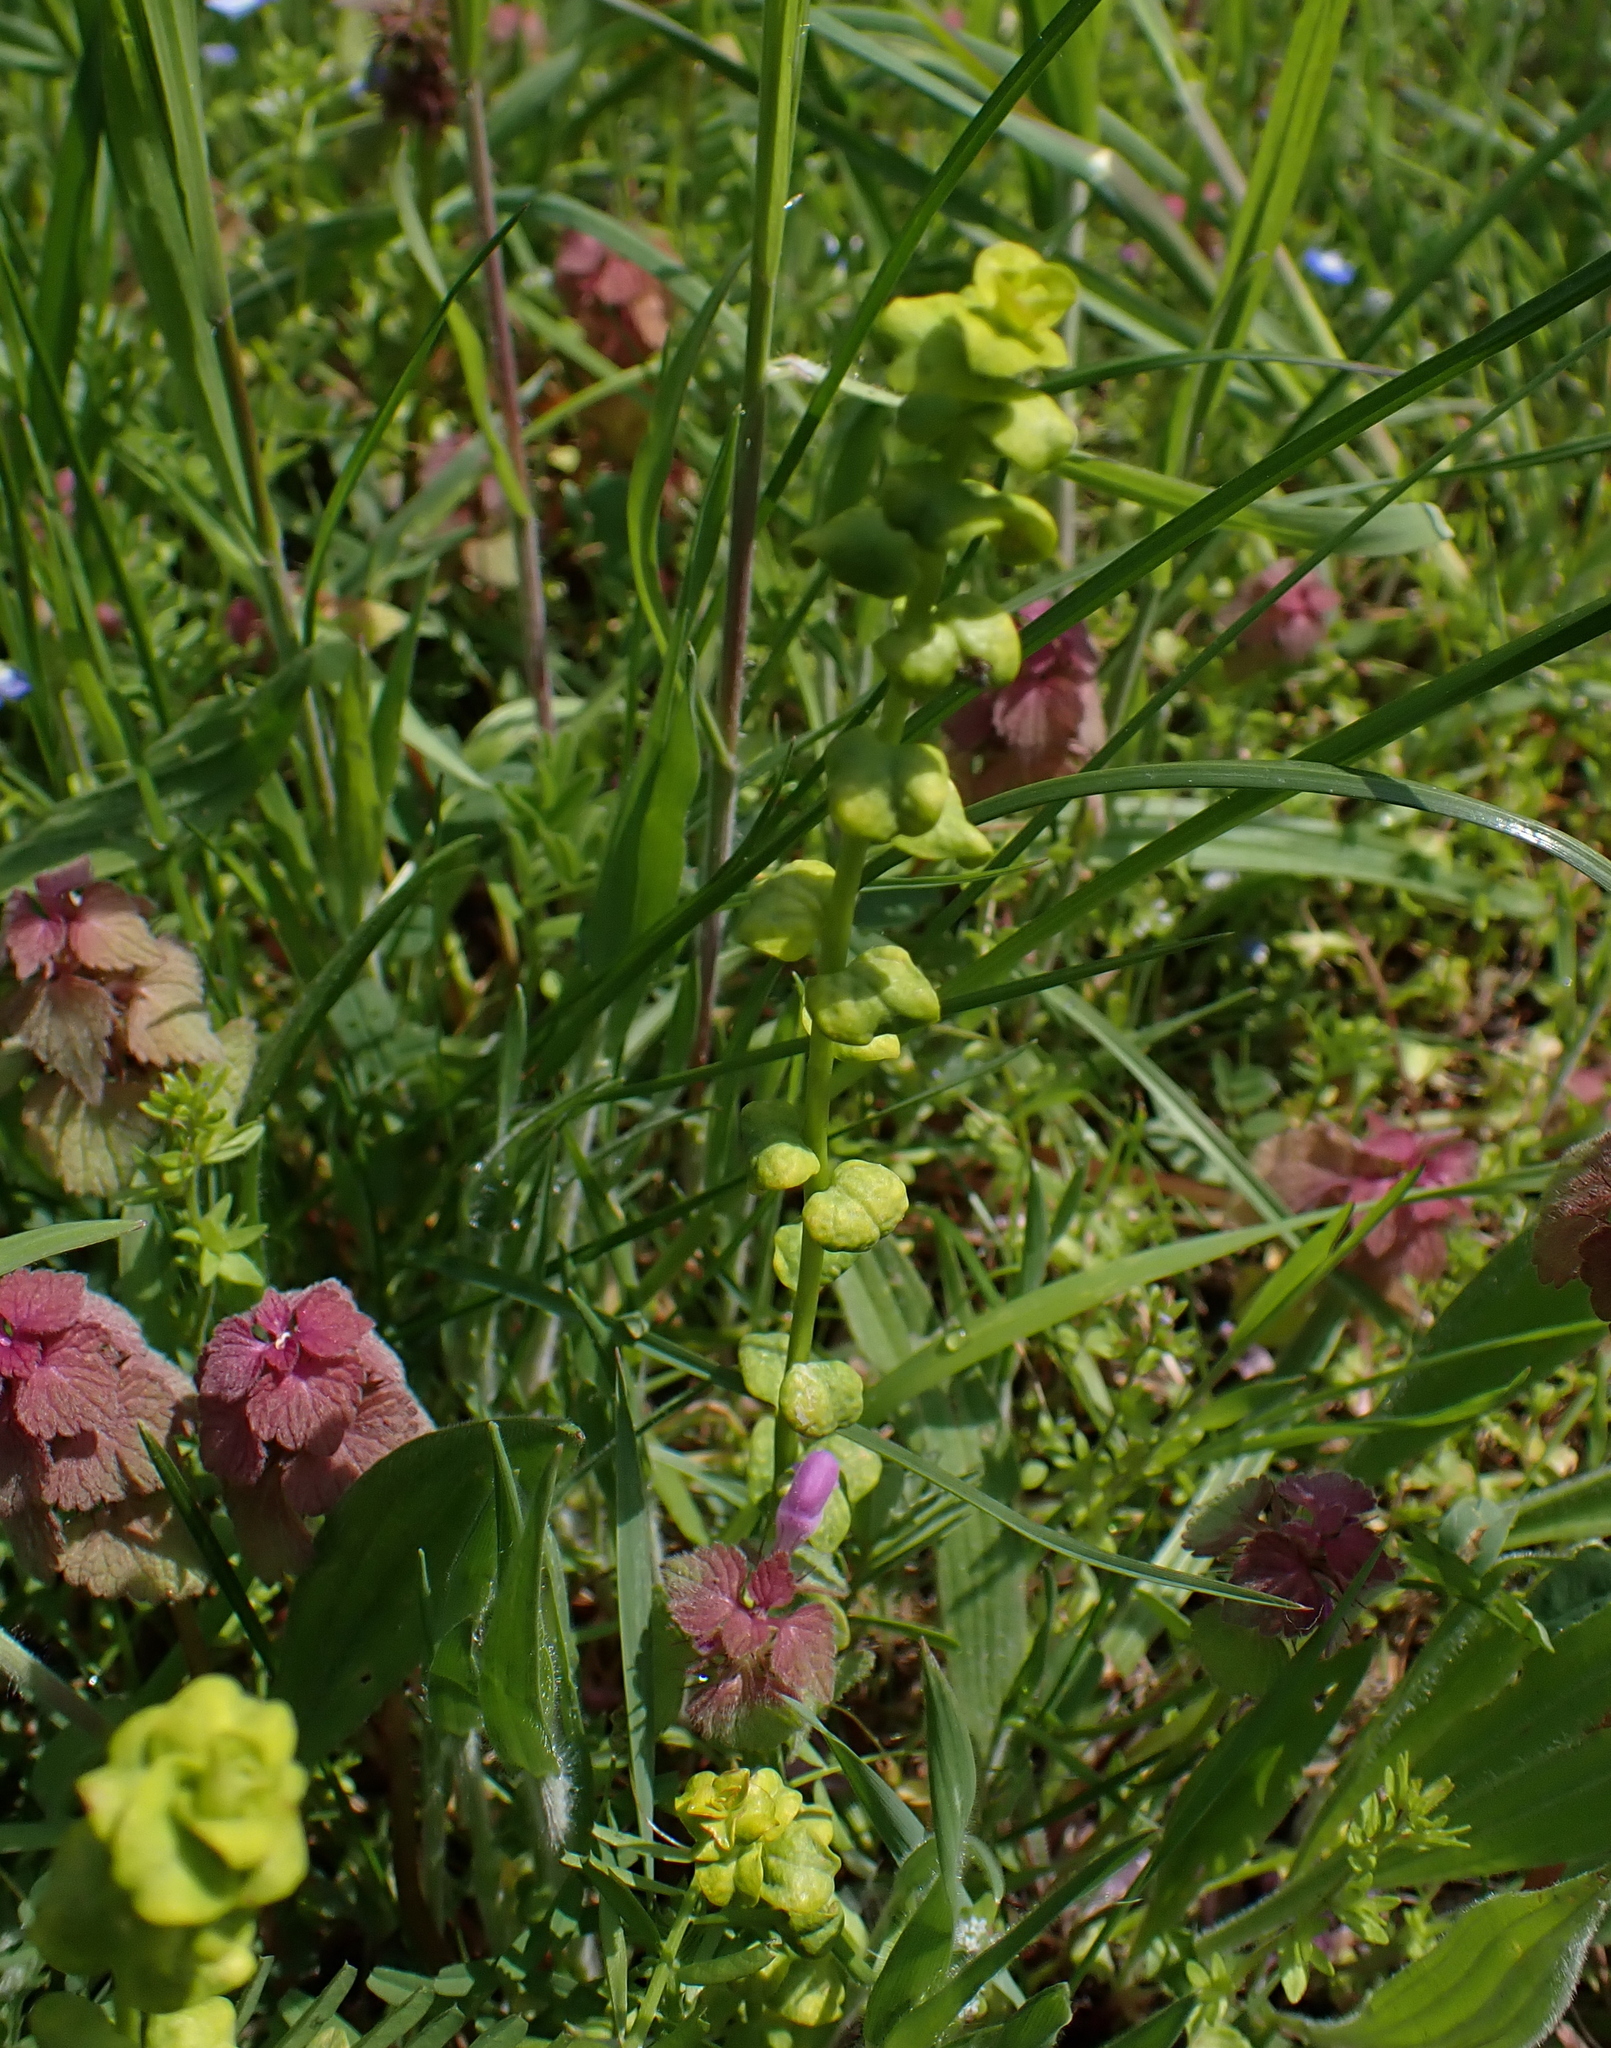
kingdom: Fungi
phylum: Basidiomycota
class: Pucciniomycetes
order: Pucciniales
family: Pucciniaceae
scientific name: Pucciniaceae
